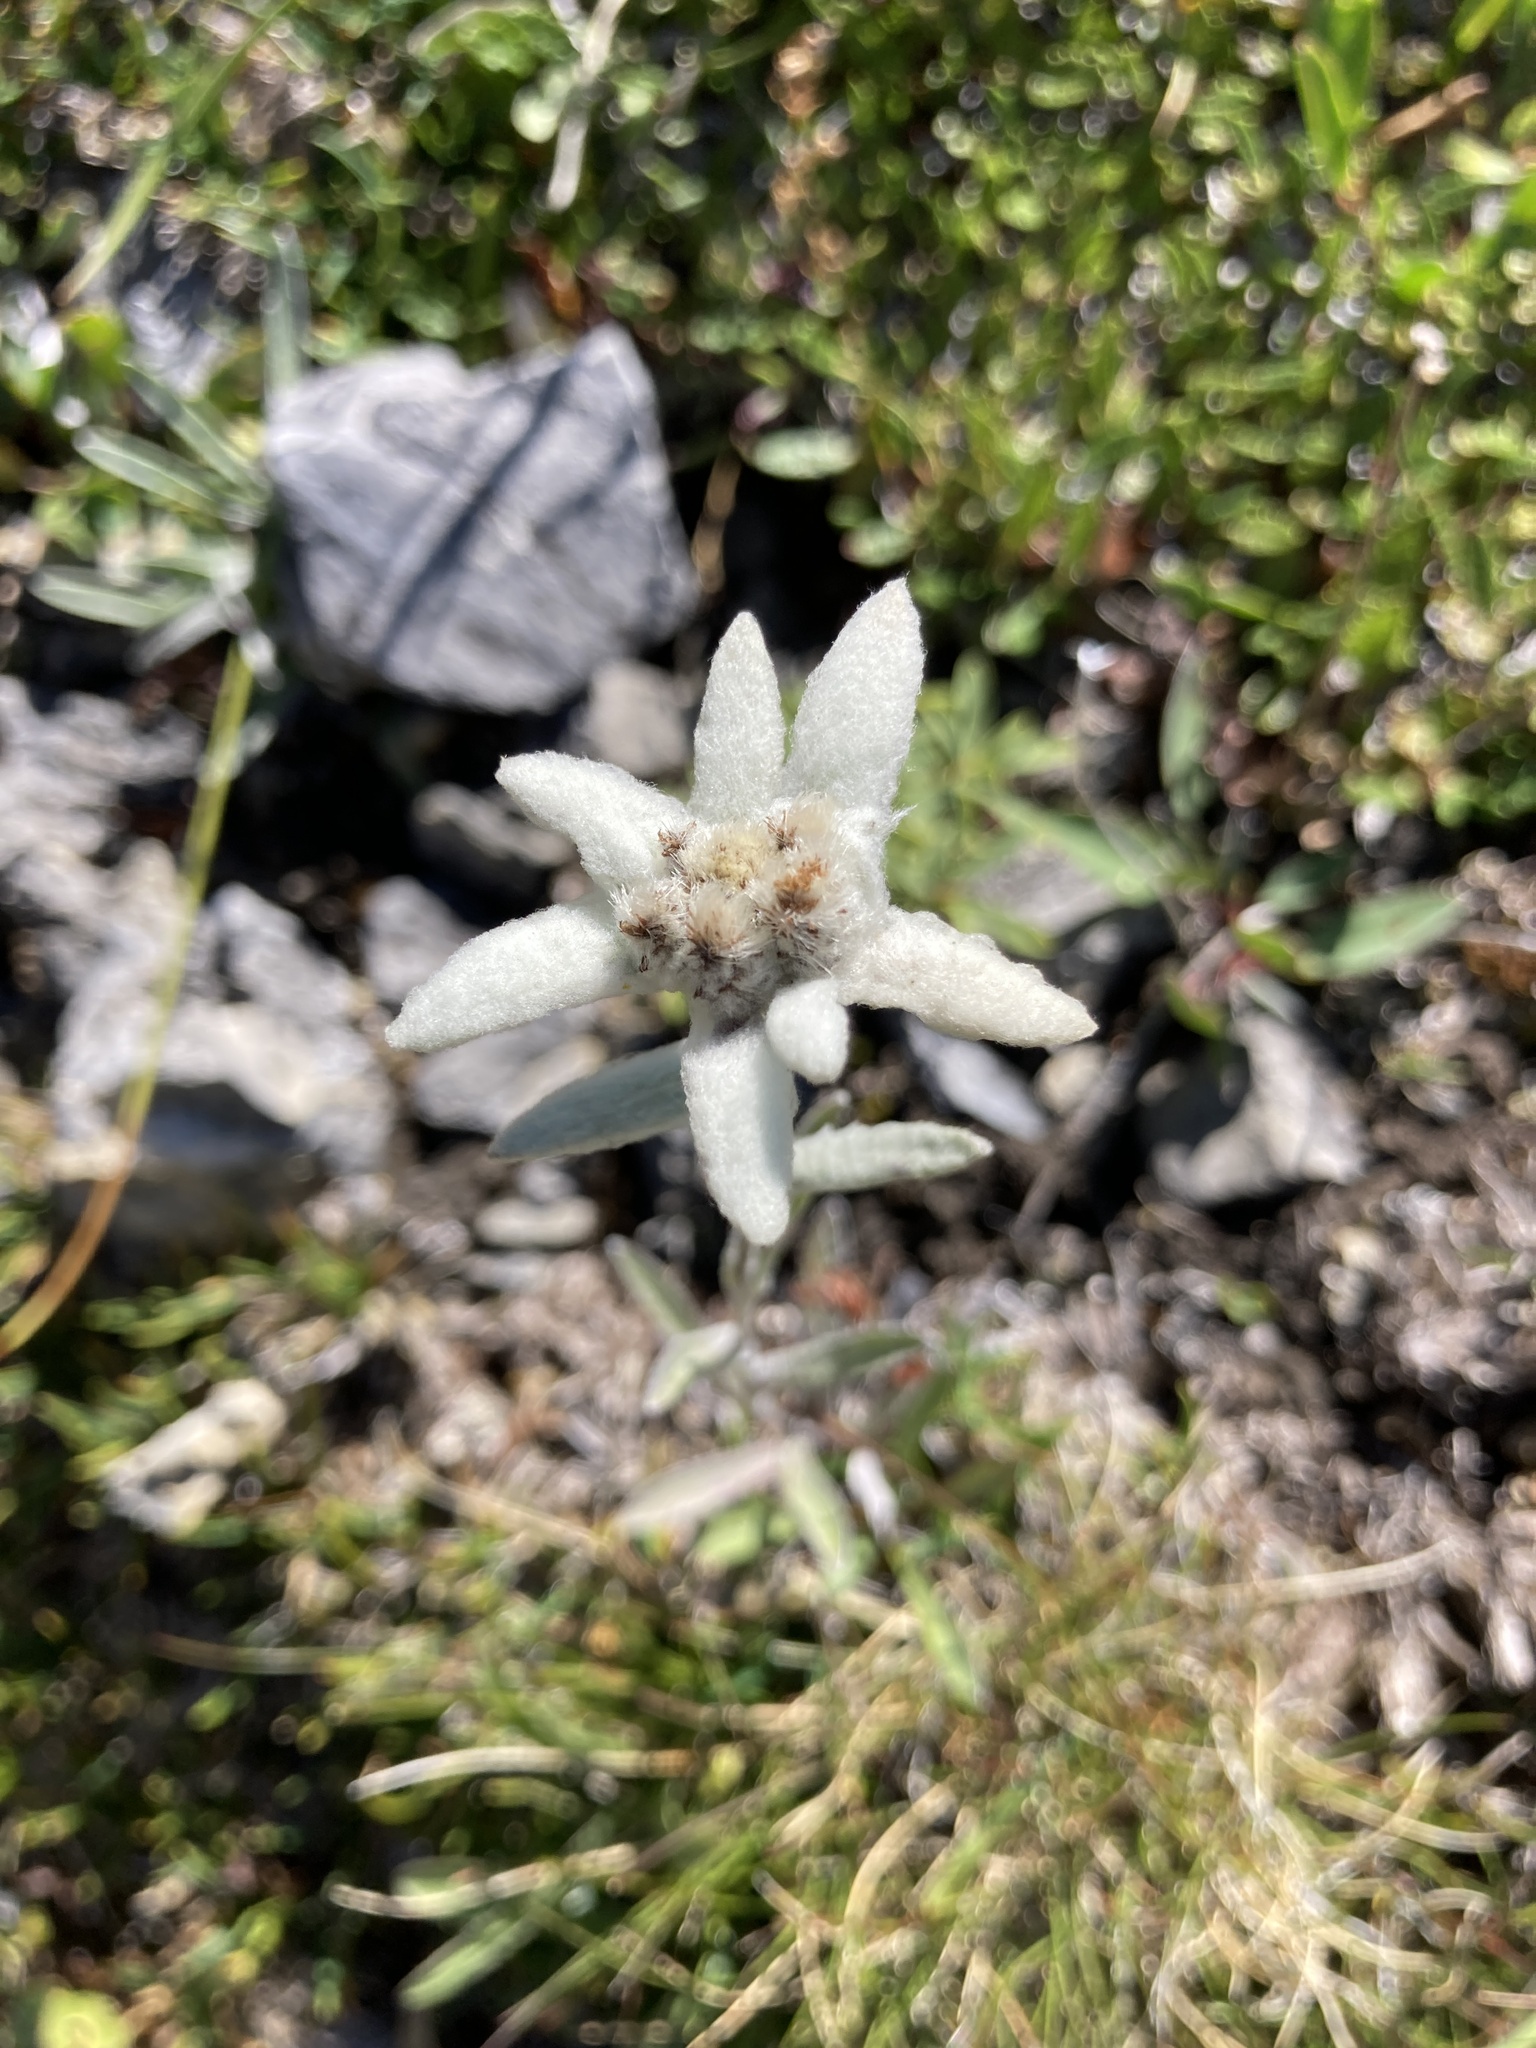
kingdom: Plantae
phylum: Tracheophyta
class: Magnoliopsida
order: Asterales
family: Asteraceae
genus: Leontopodium
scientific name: Leontopodium nivale
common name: Edelweiss
